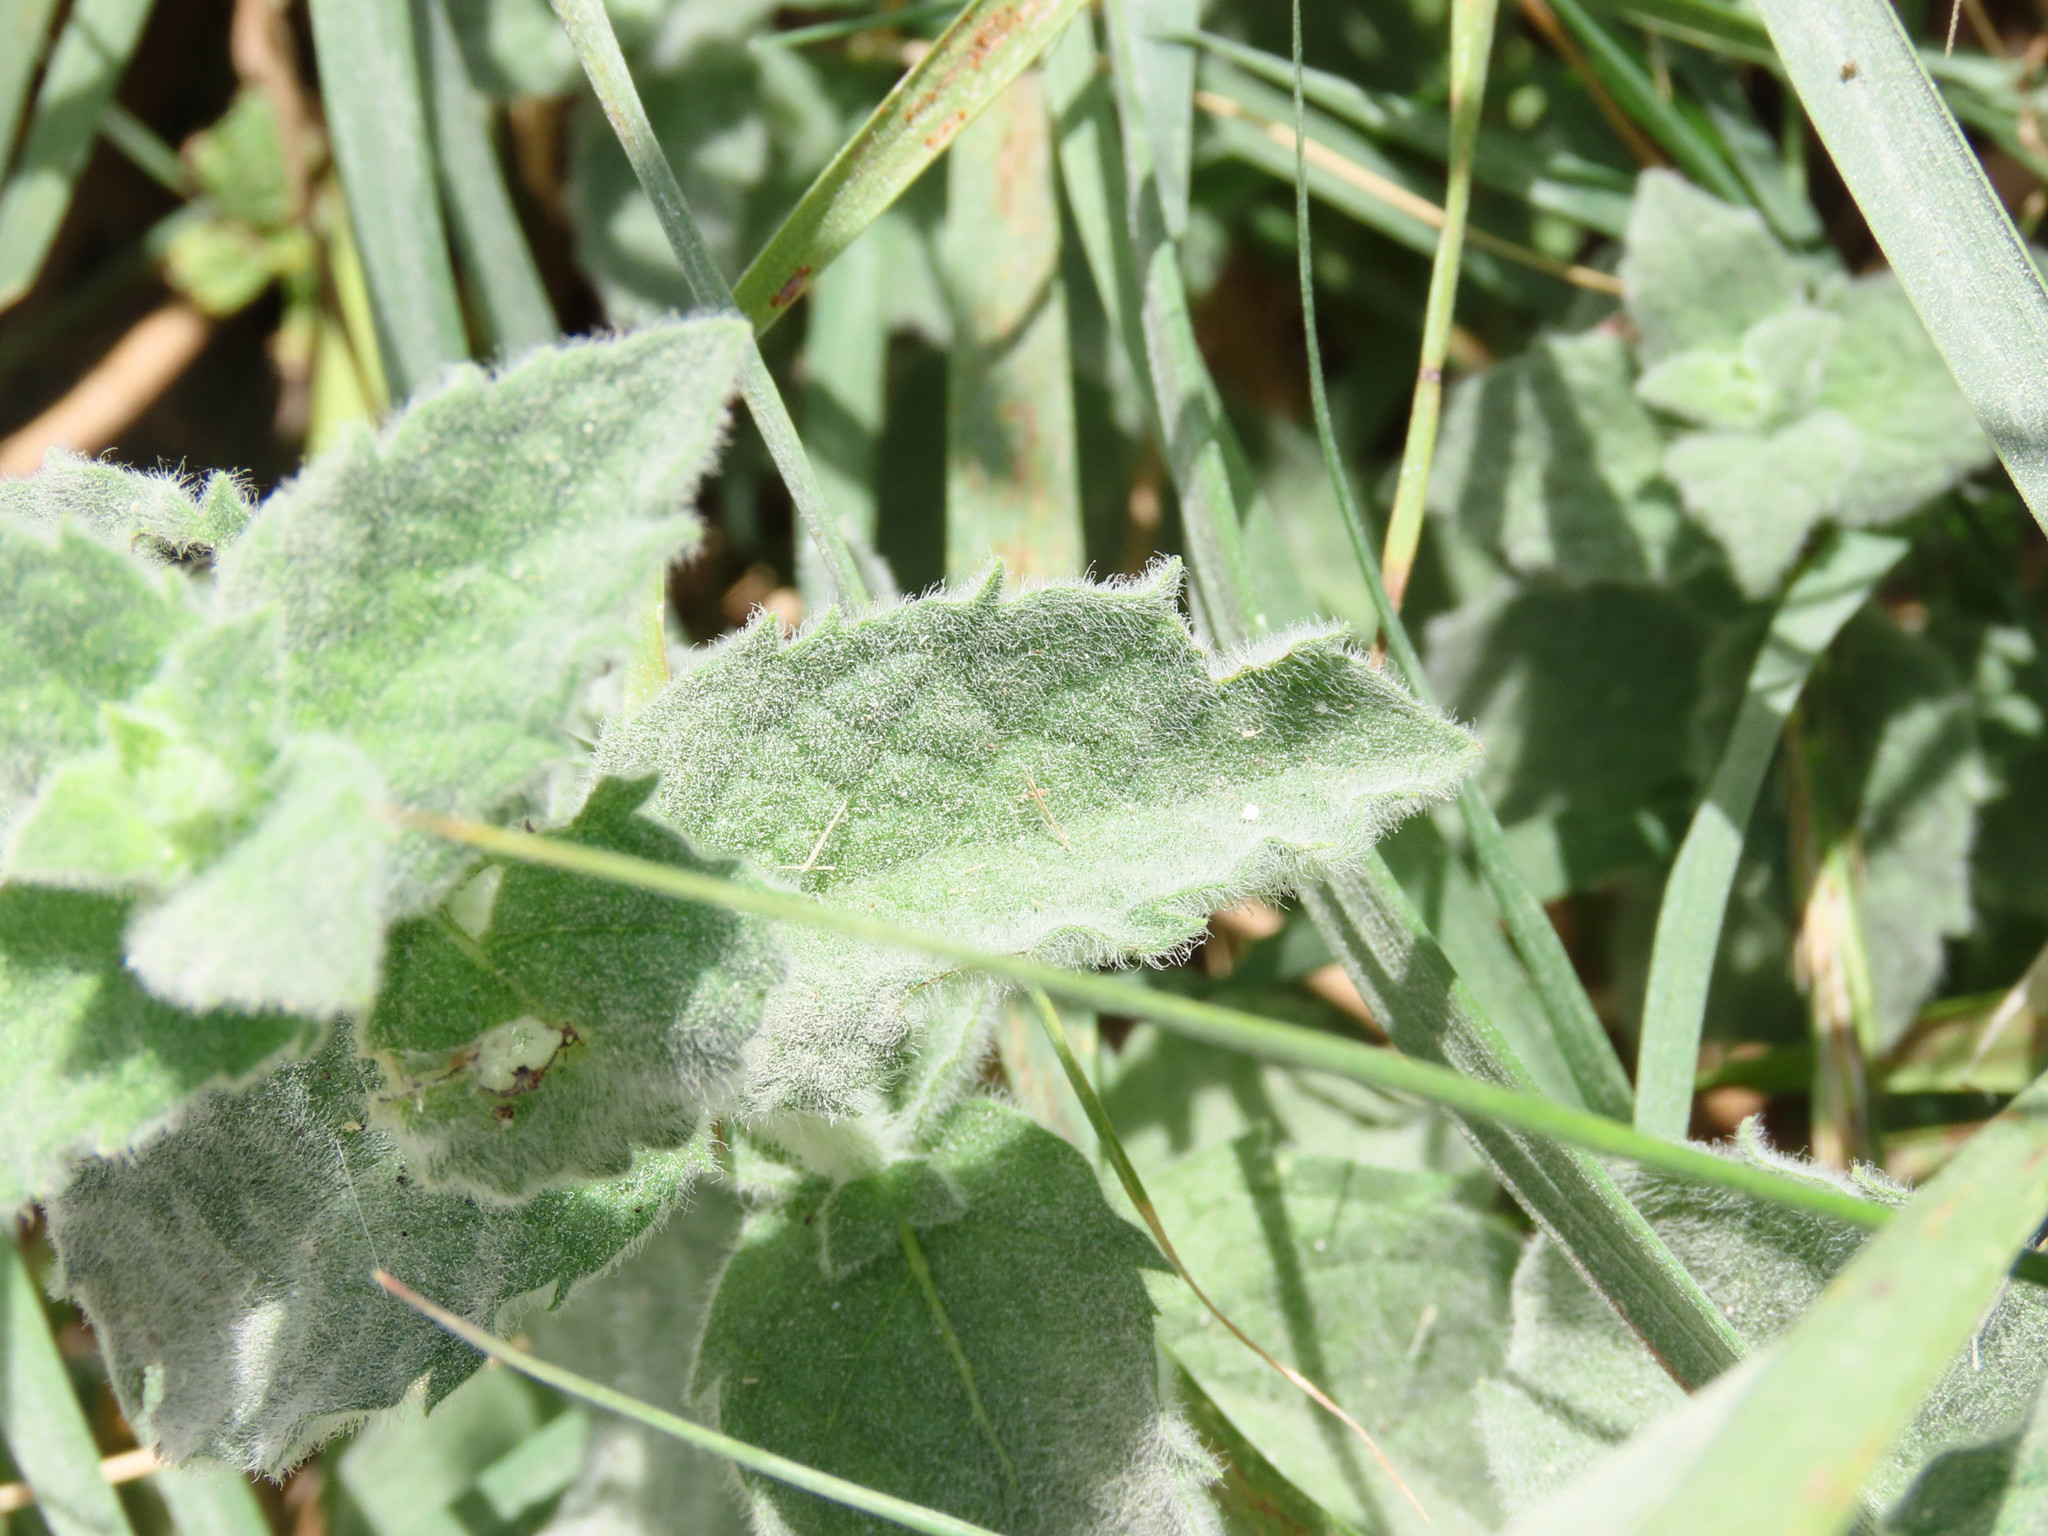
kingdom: Plantae
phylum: Tracheophyta
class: Magnoliopsida
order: Lamiales
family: Lamiaceae
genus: Mentha
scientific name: Mentha spicata
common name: Spearmint
